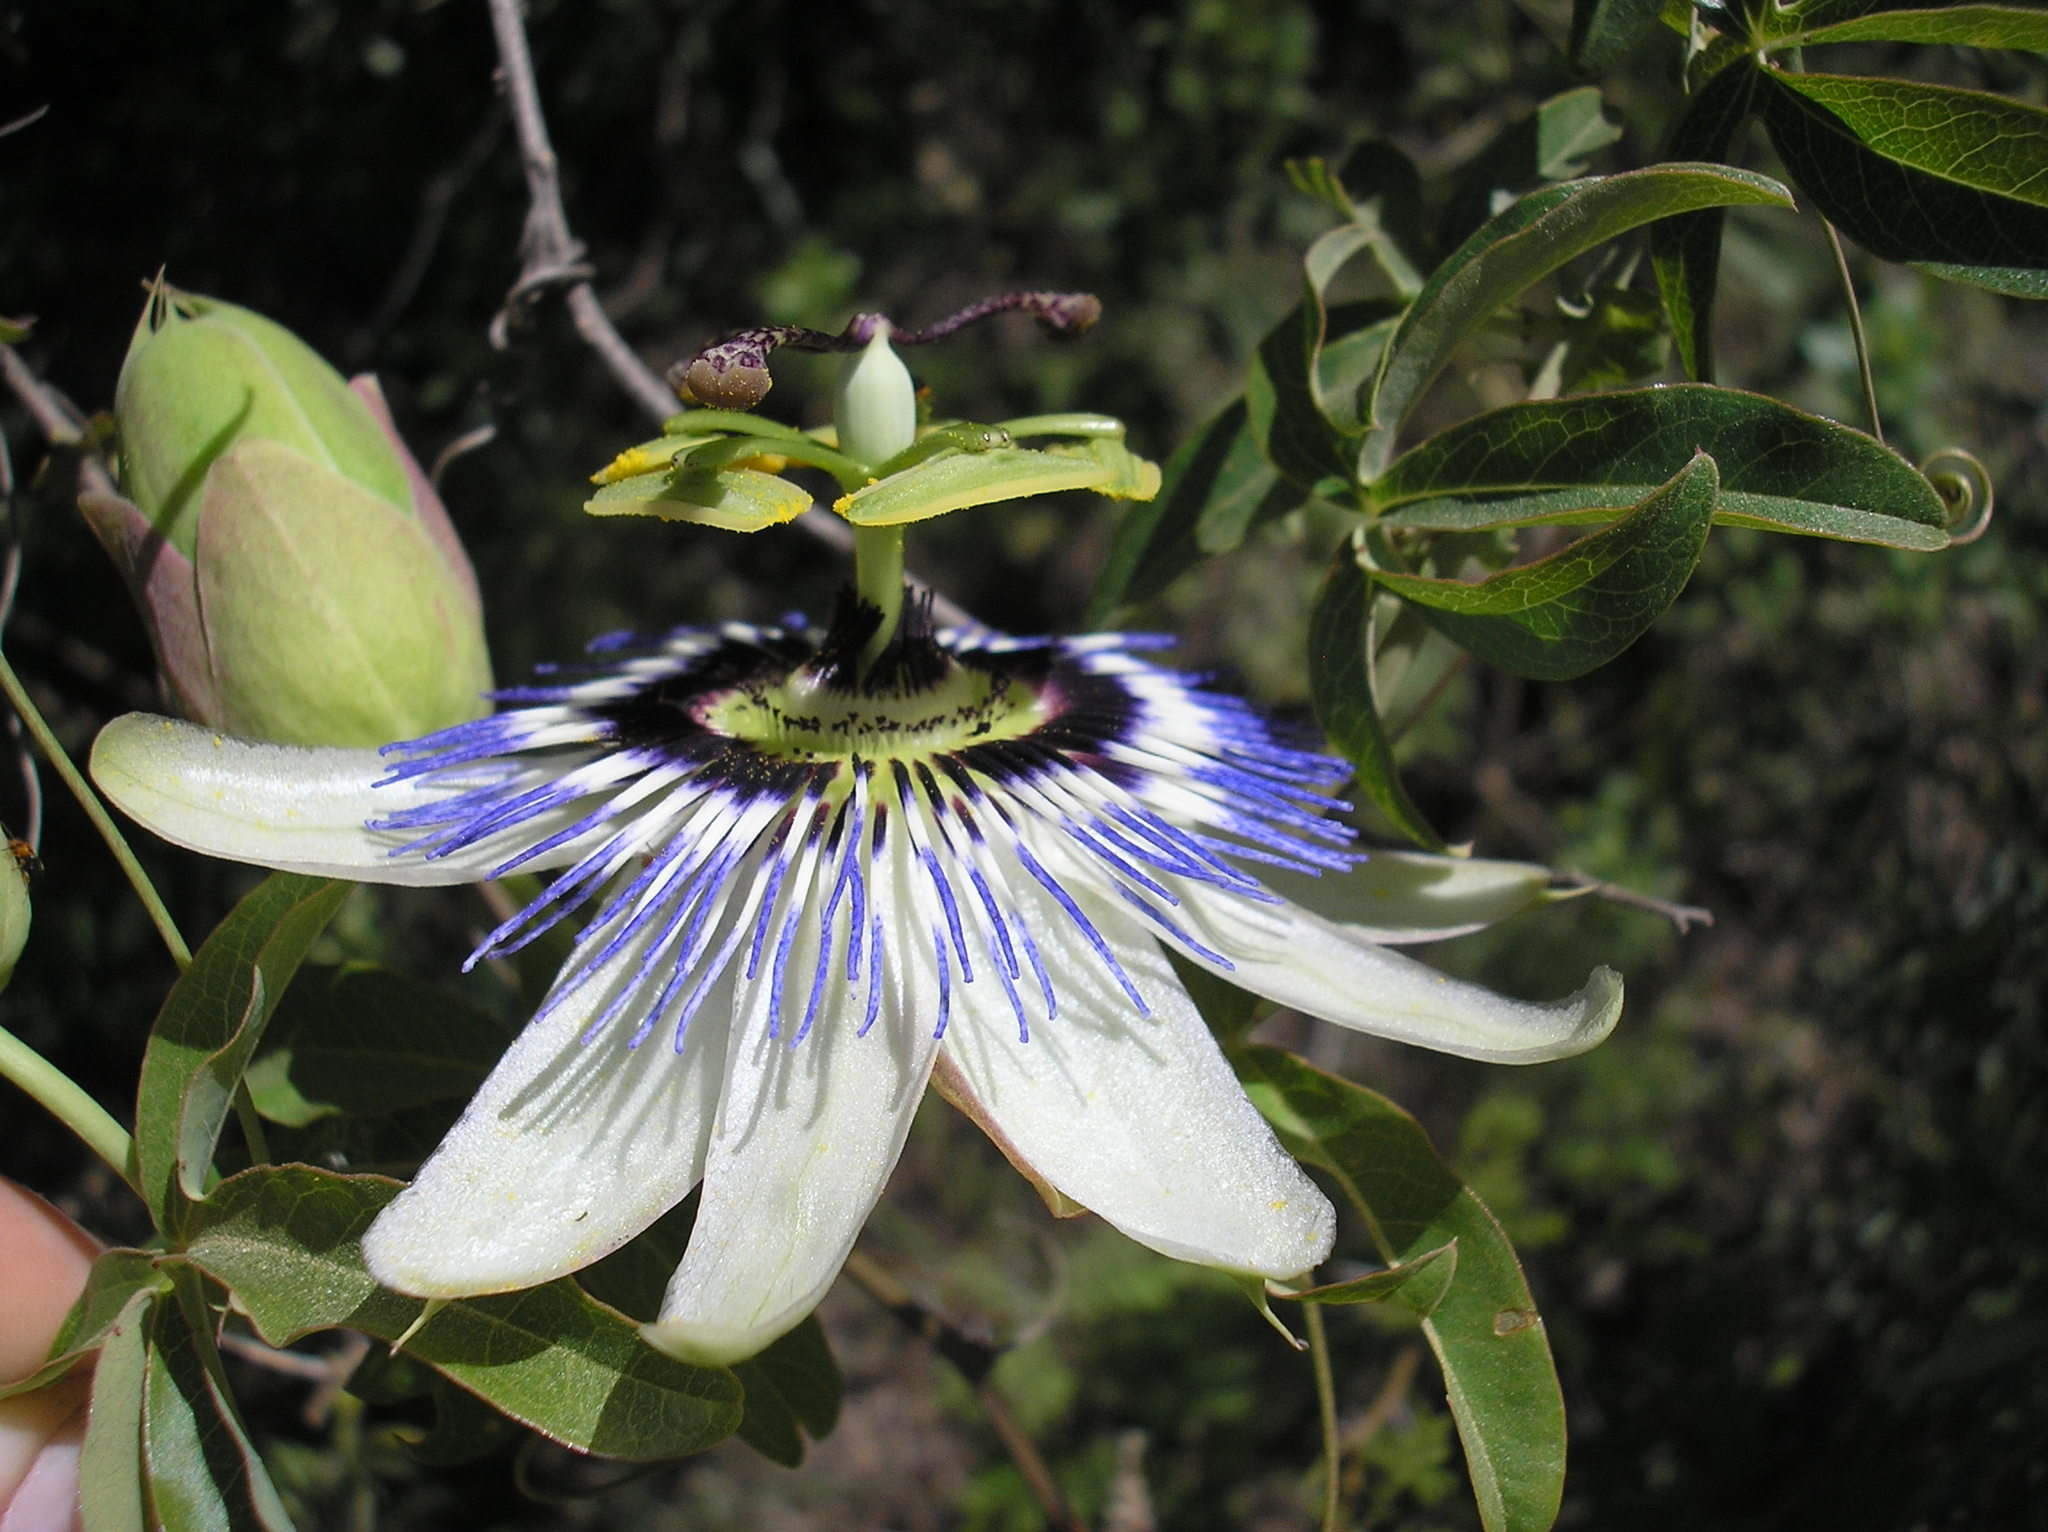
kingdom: Plantae
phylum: Tracheophyta
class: Magnoliopsida
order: Malpighiales
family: Passifloraceae
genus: Passiflora
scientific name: Passiflora caerulea
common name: Blue passionflower
